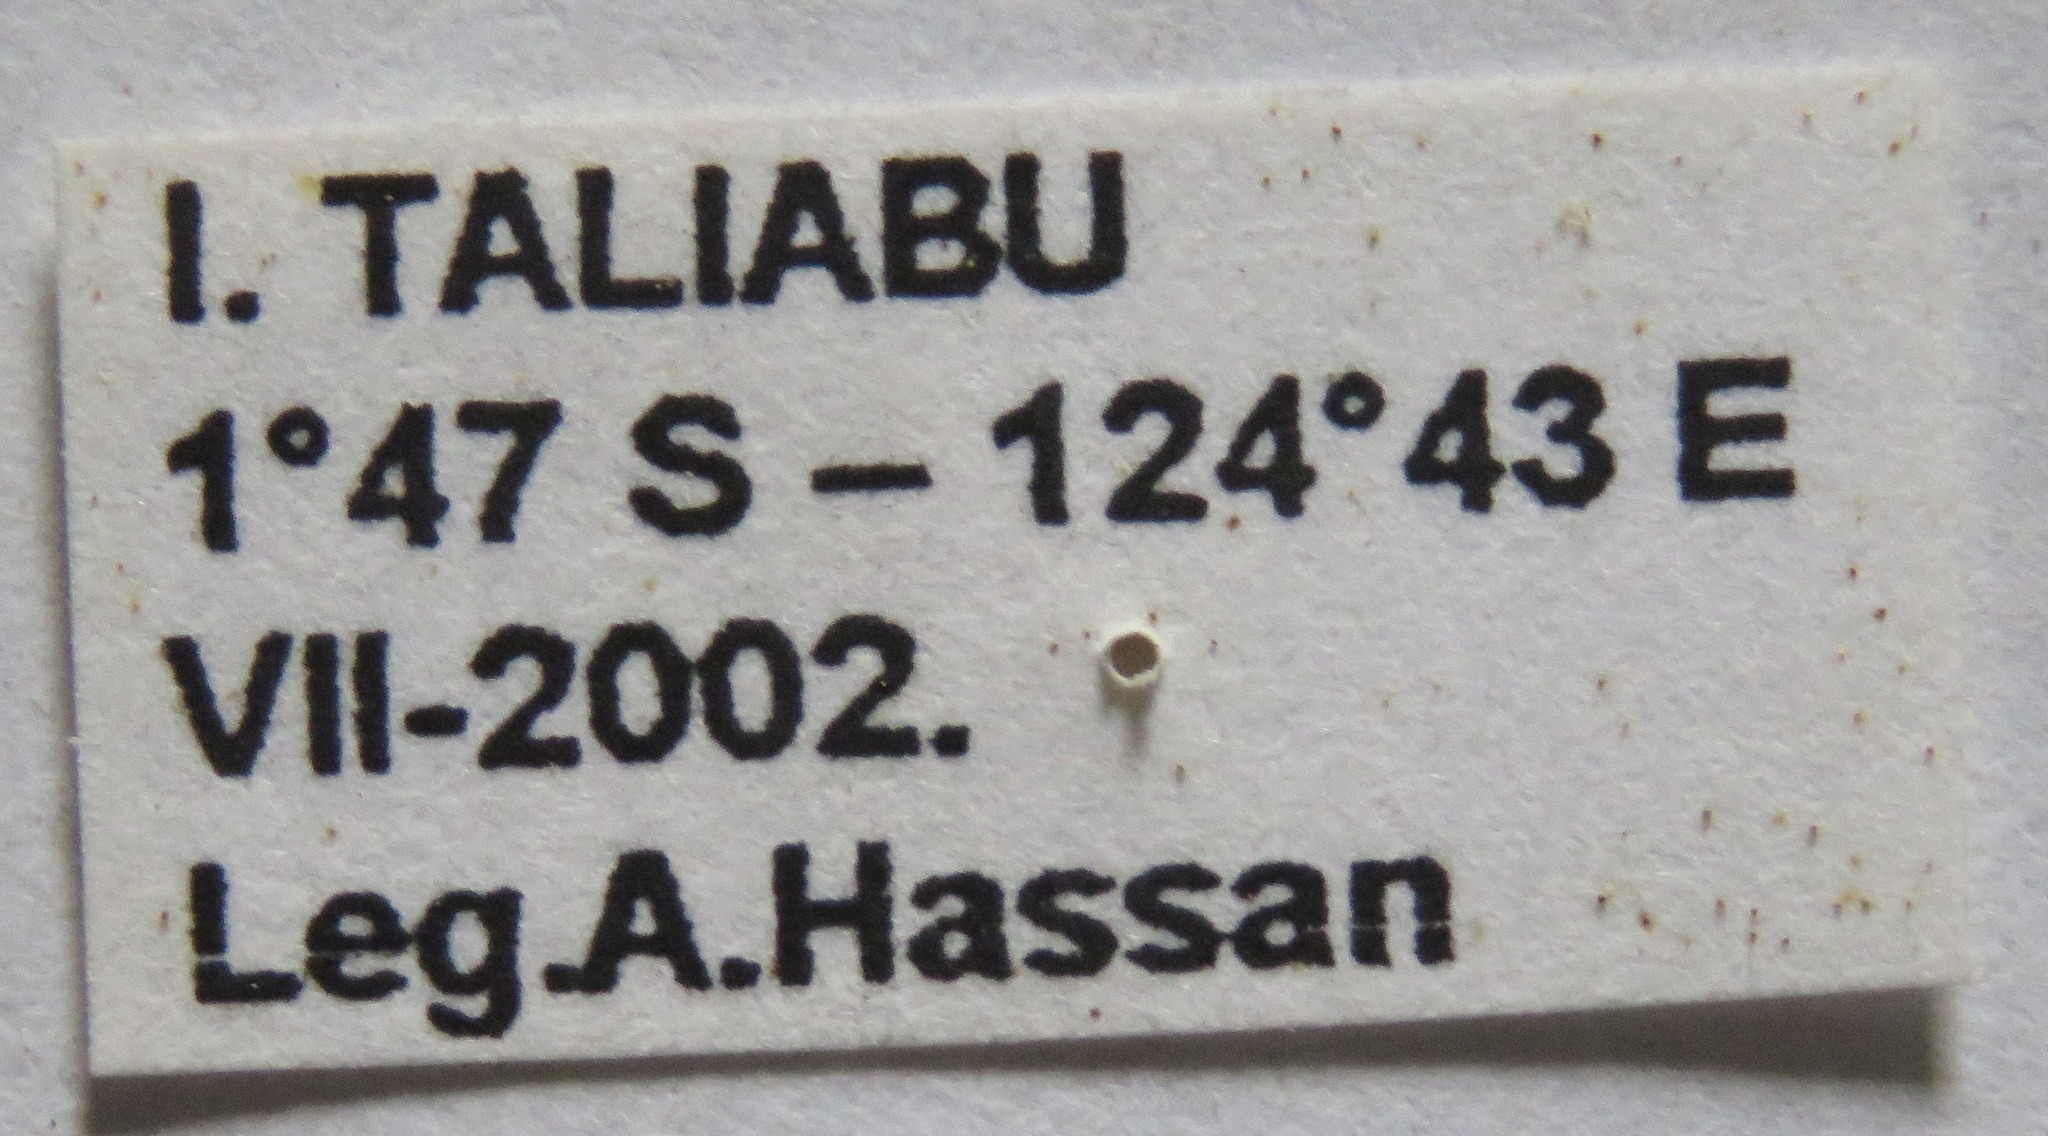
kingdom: Animalia
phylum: Arthropoda
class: Insecta
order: Coleoptera
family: Lucanidae
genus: Prosopocoilus
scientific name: Prosopocoilus bruijni
